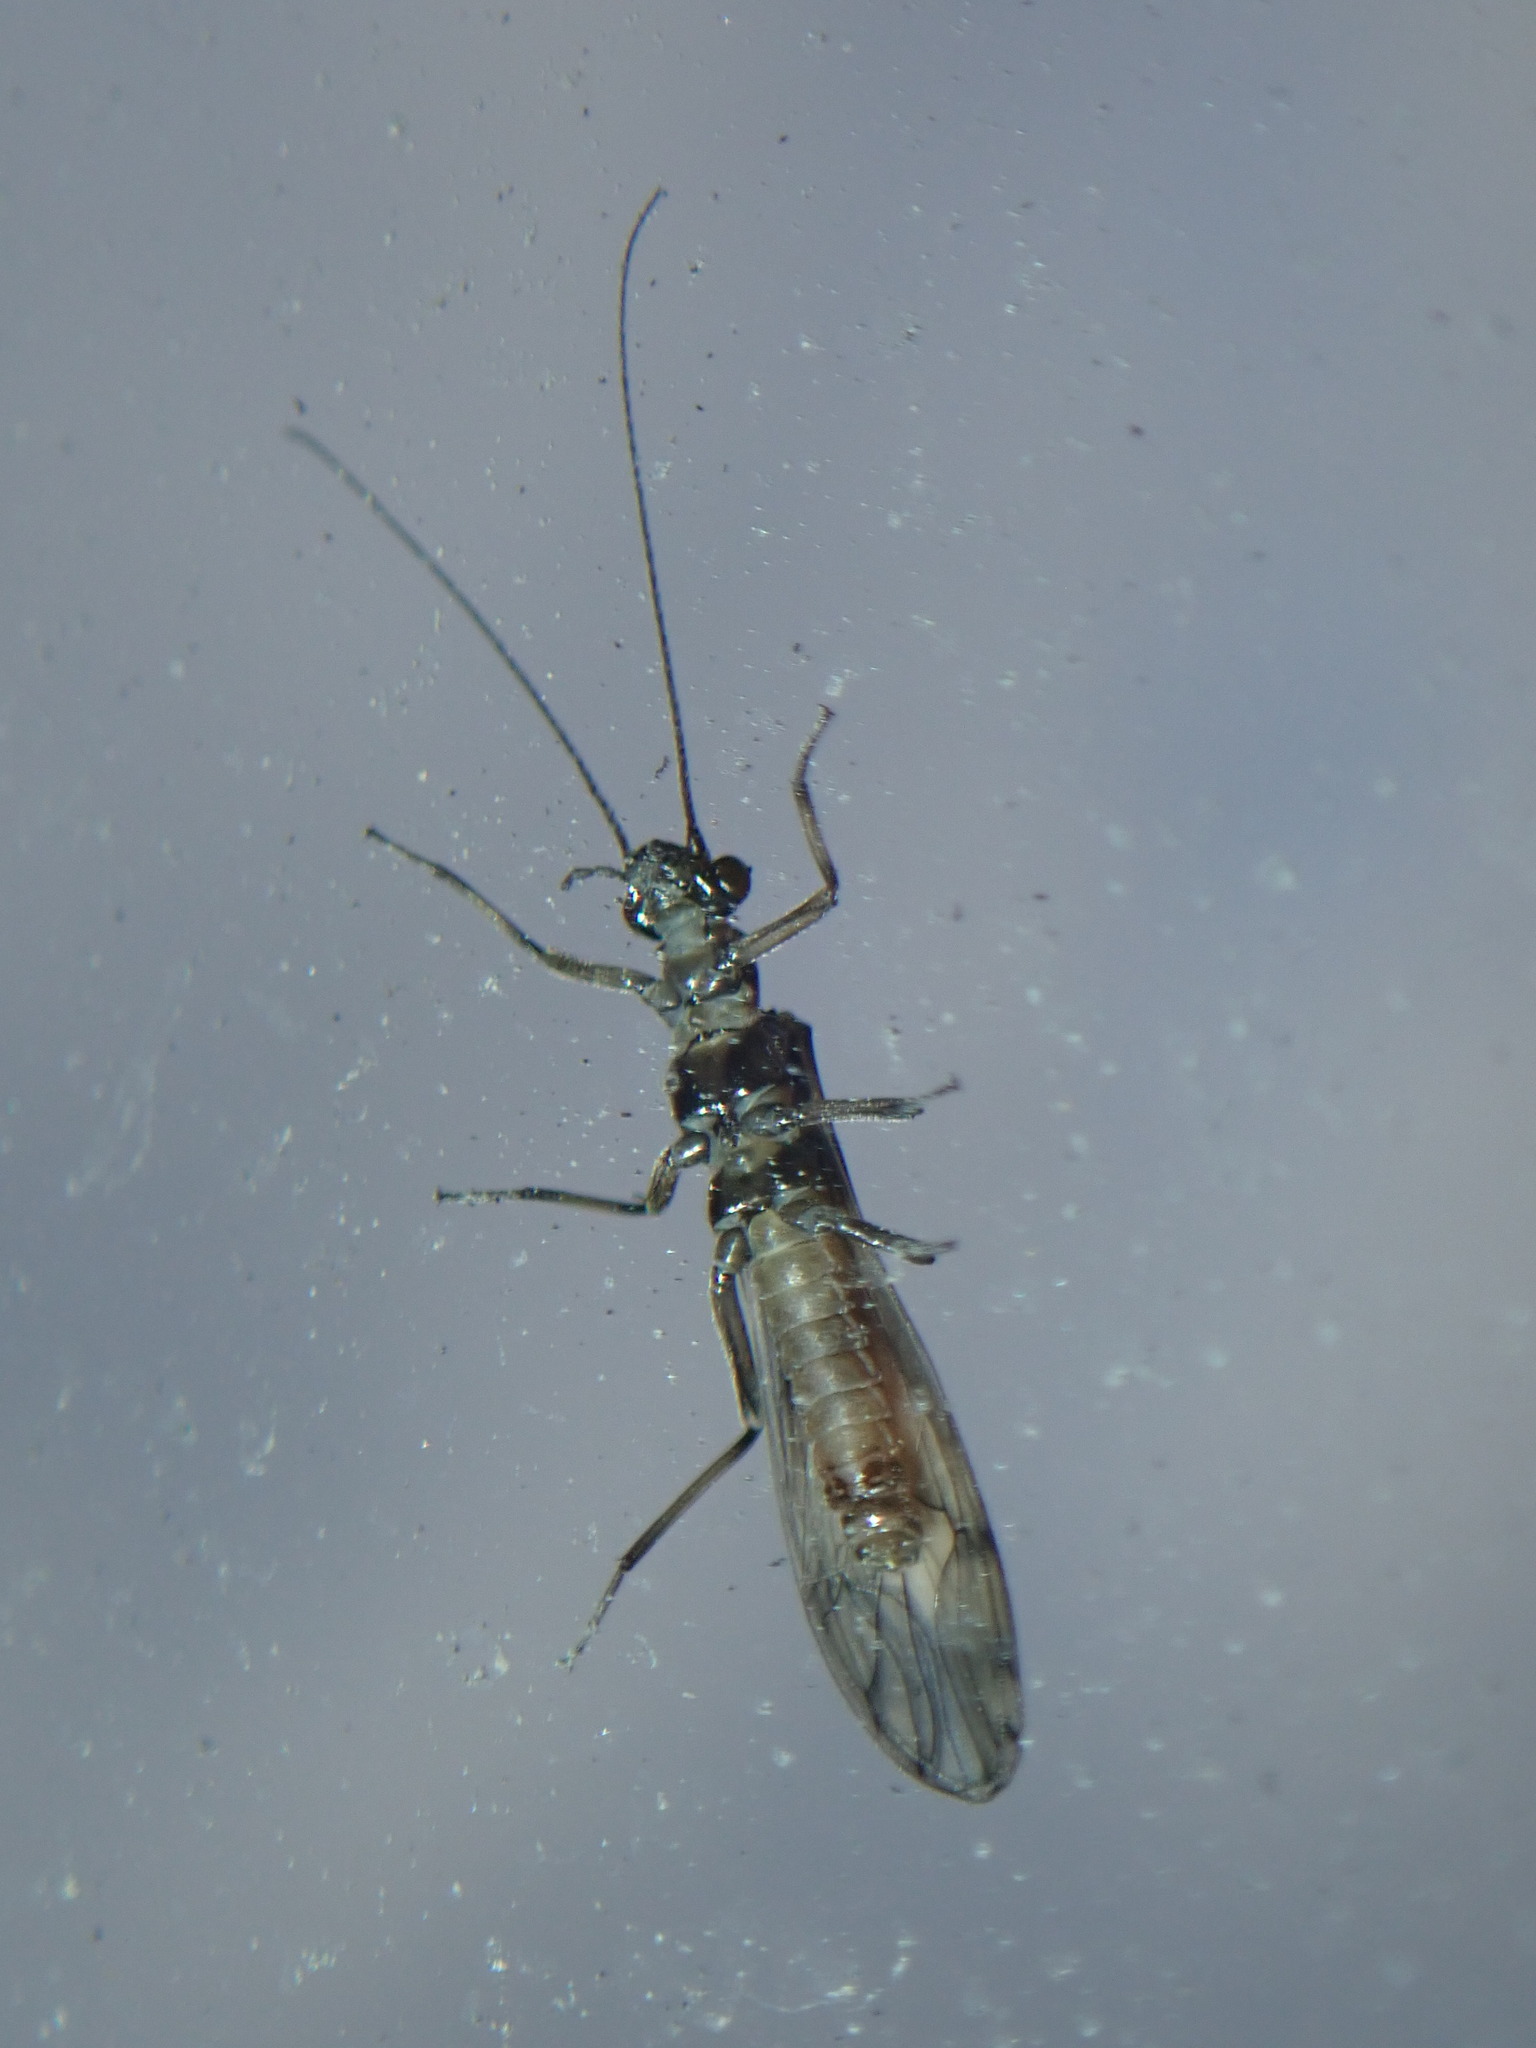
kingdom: Animalia
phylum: Arthropoda
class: Insecta
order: Plecoptera
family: Nemouridae
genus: Shipsa
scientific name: Shipsa rotunda
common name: Intrepid forestfly
